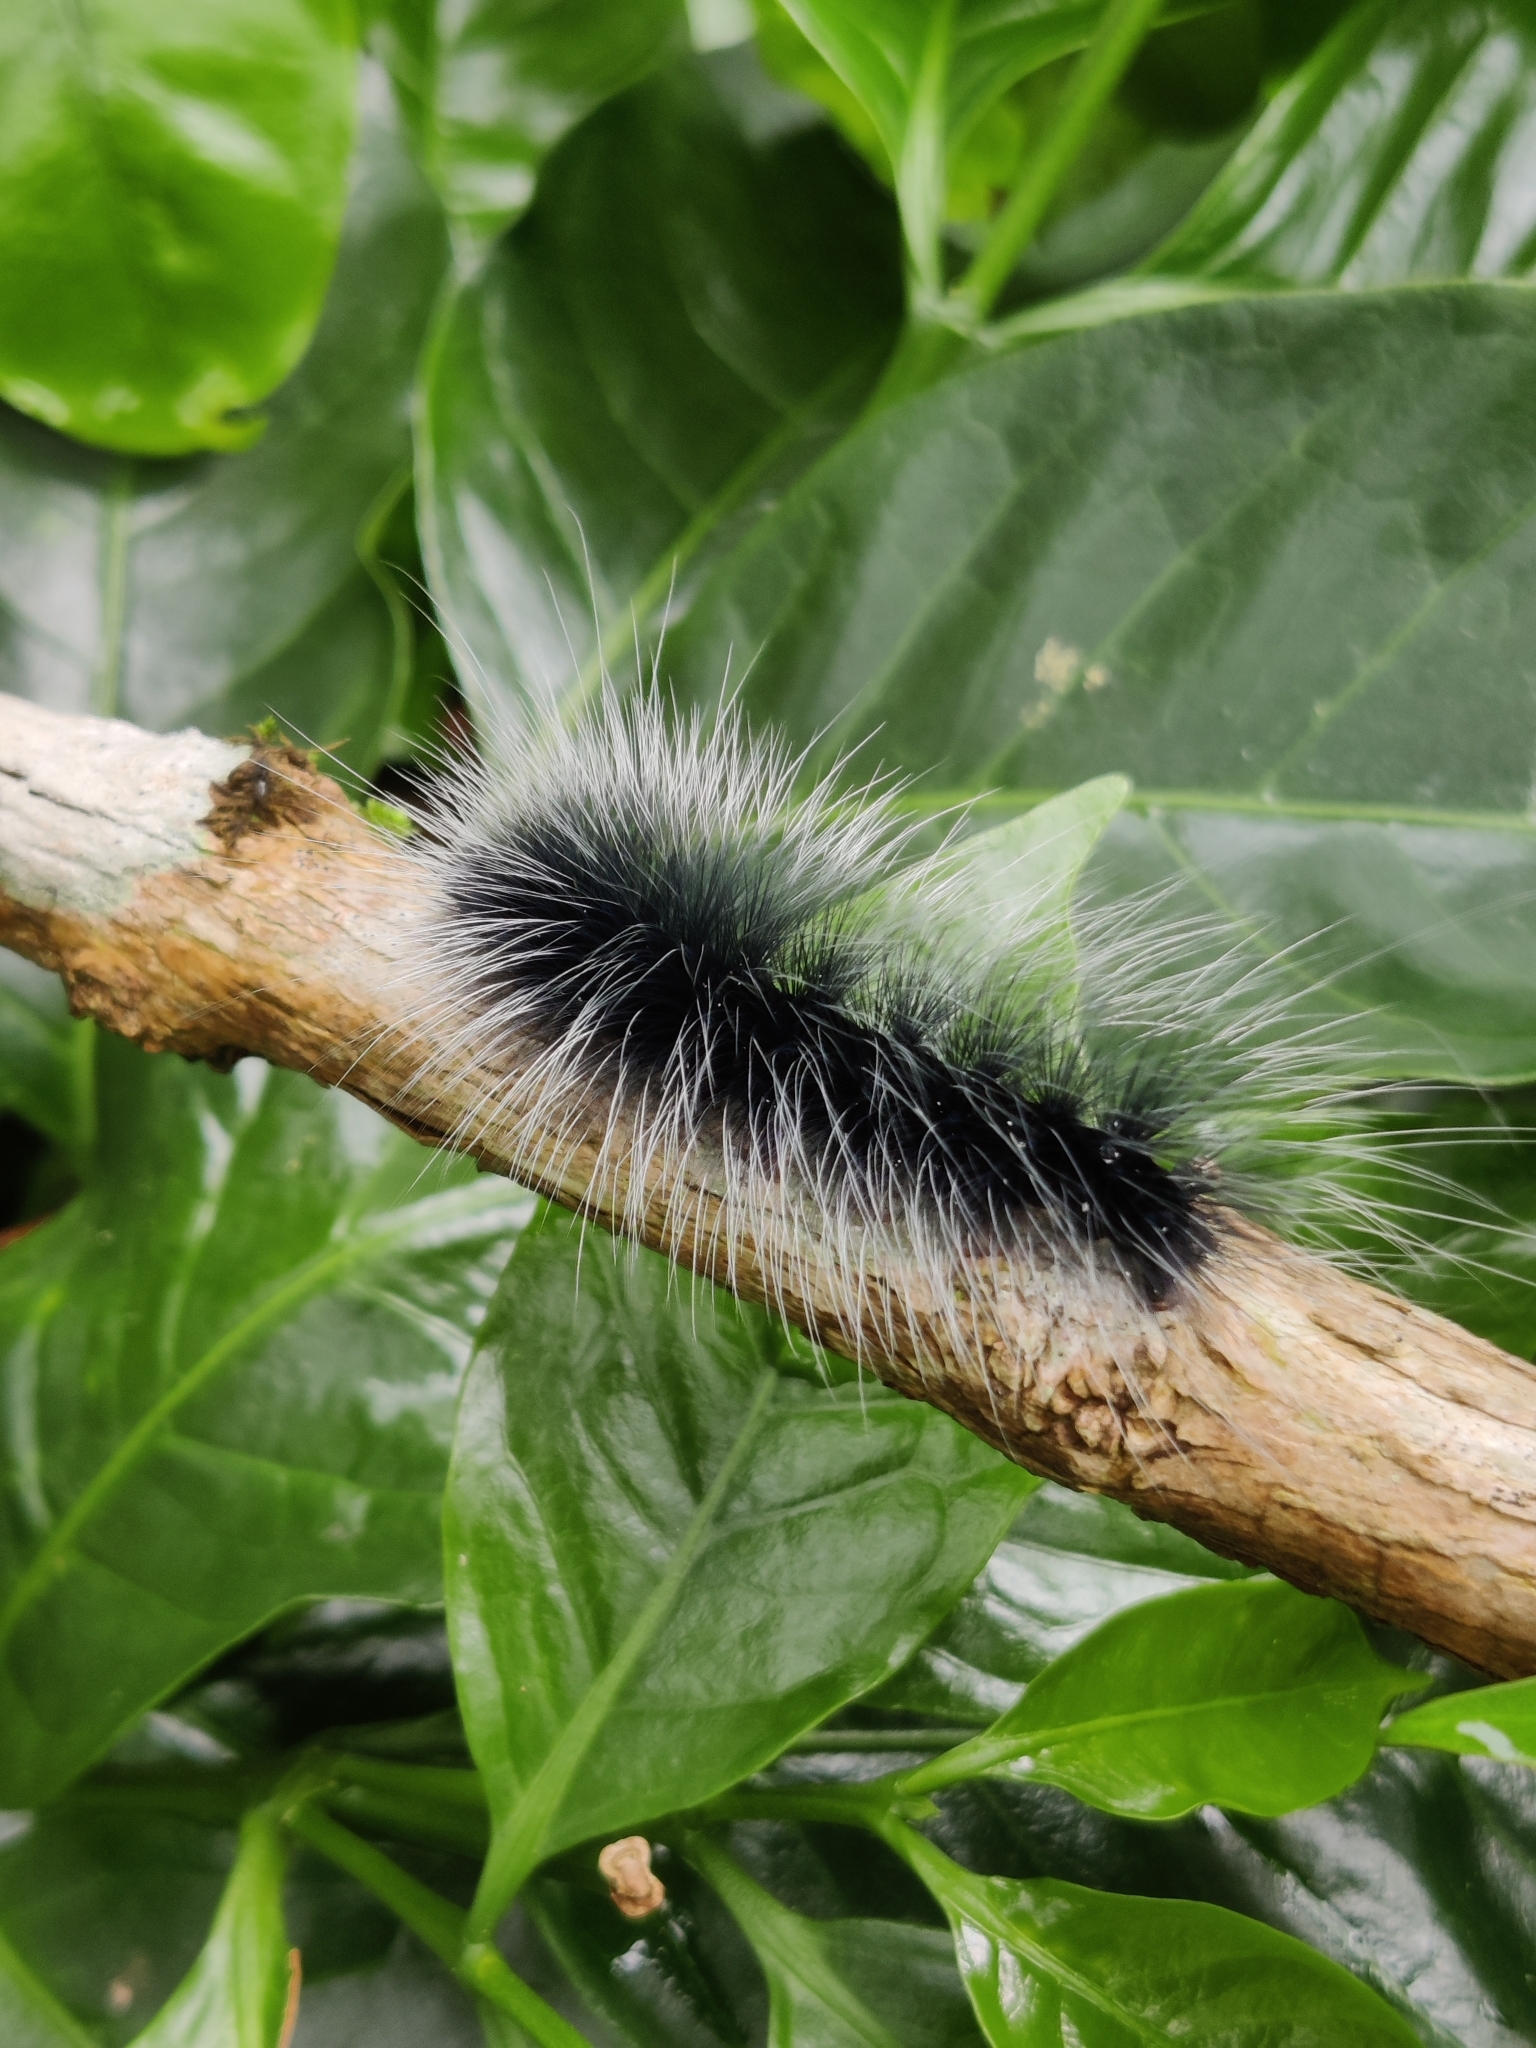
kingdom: Animalia
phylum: Arthropoda
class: Insecta
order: Lepidoptera
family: Erebidae
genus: Macrobrochis
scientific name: Macrobrochis gigas
